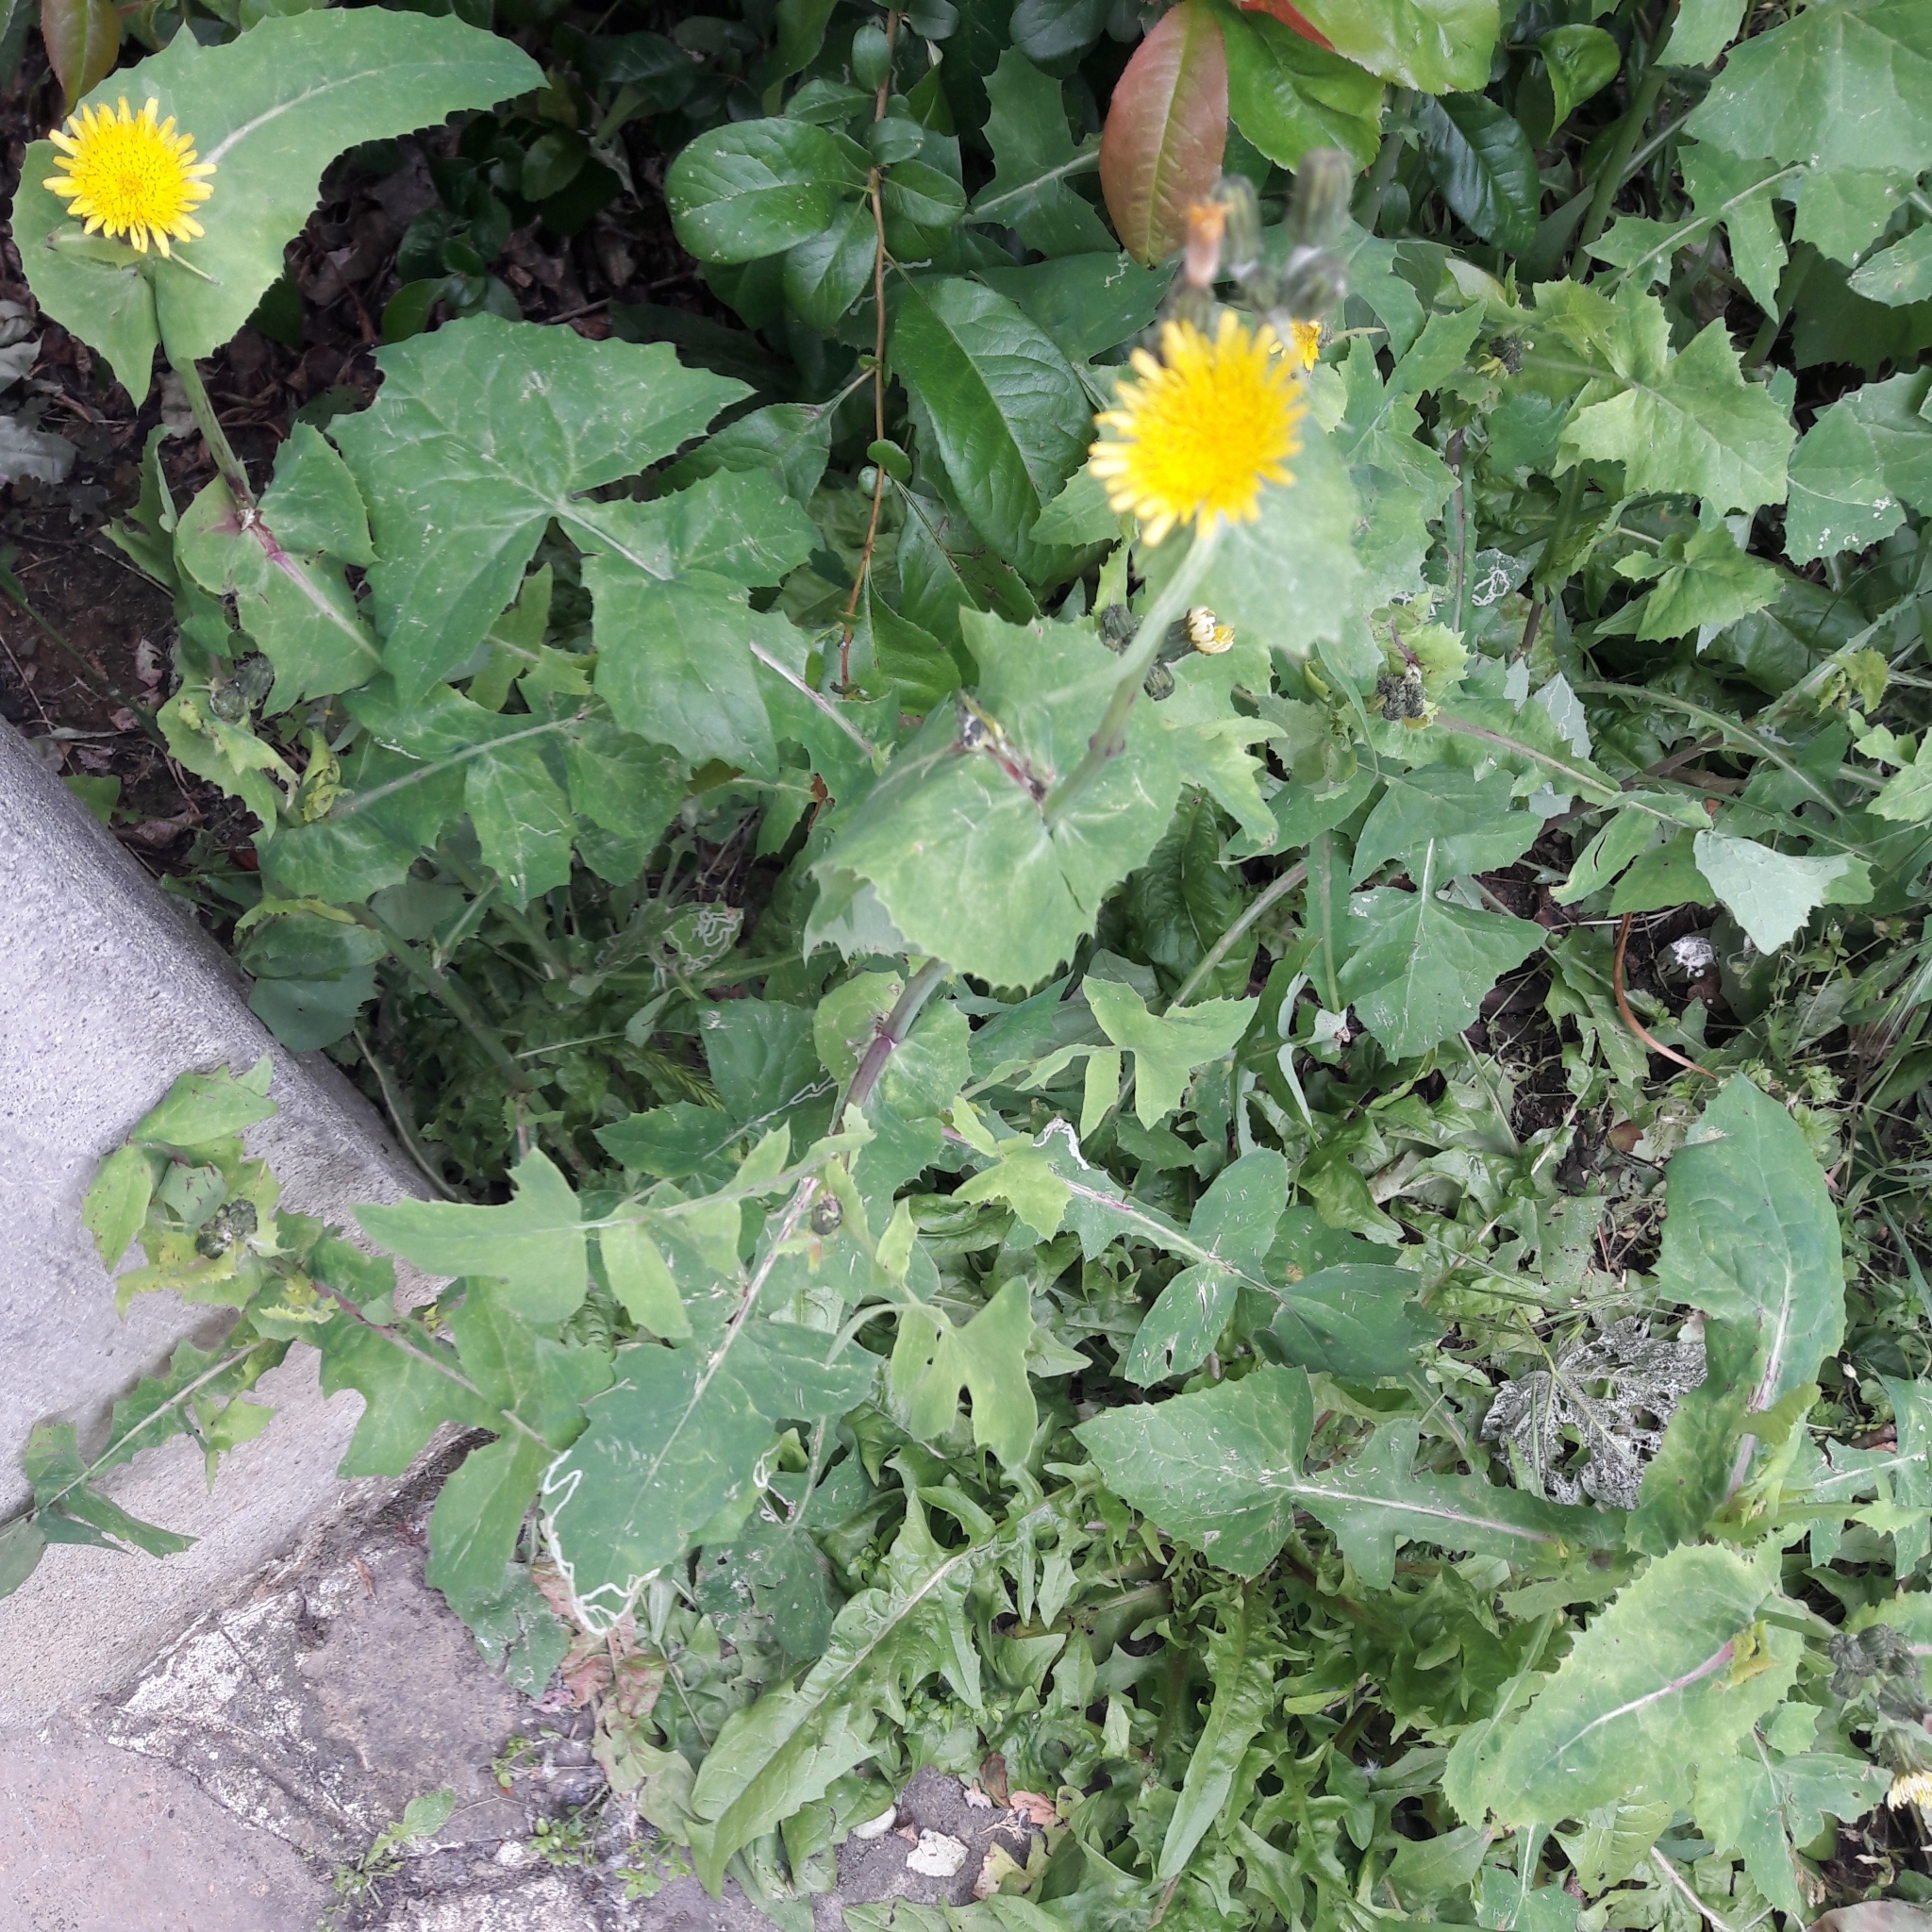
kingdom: Plantae
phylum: Tracheophyta
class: Magnoliopsida
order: Asterales
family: Asteraceae
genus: Sonchus
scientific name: Sonchus oleraceus
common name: Common sowthistle
